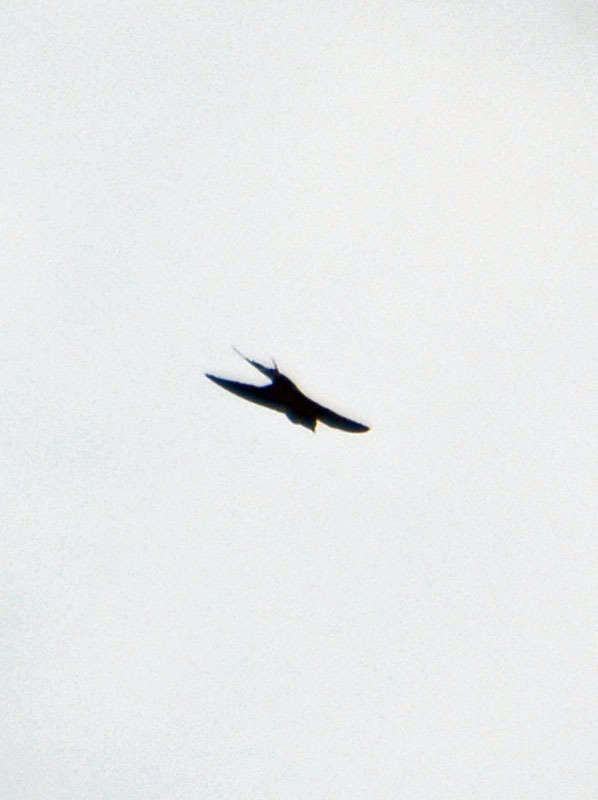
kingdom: Animalia
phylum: Chordata
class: Aves
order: Passeriformes
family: Hirundinidae
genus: Hirundo
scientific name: Hirundo rustica
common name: Barn swallow
